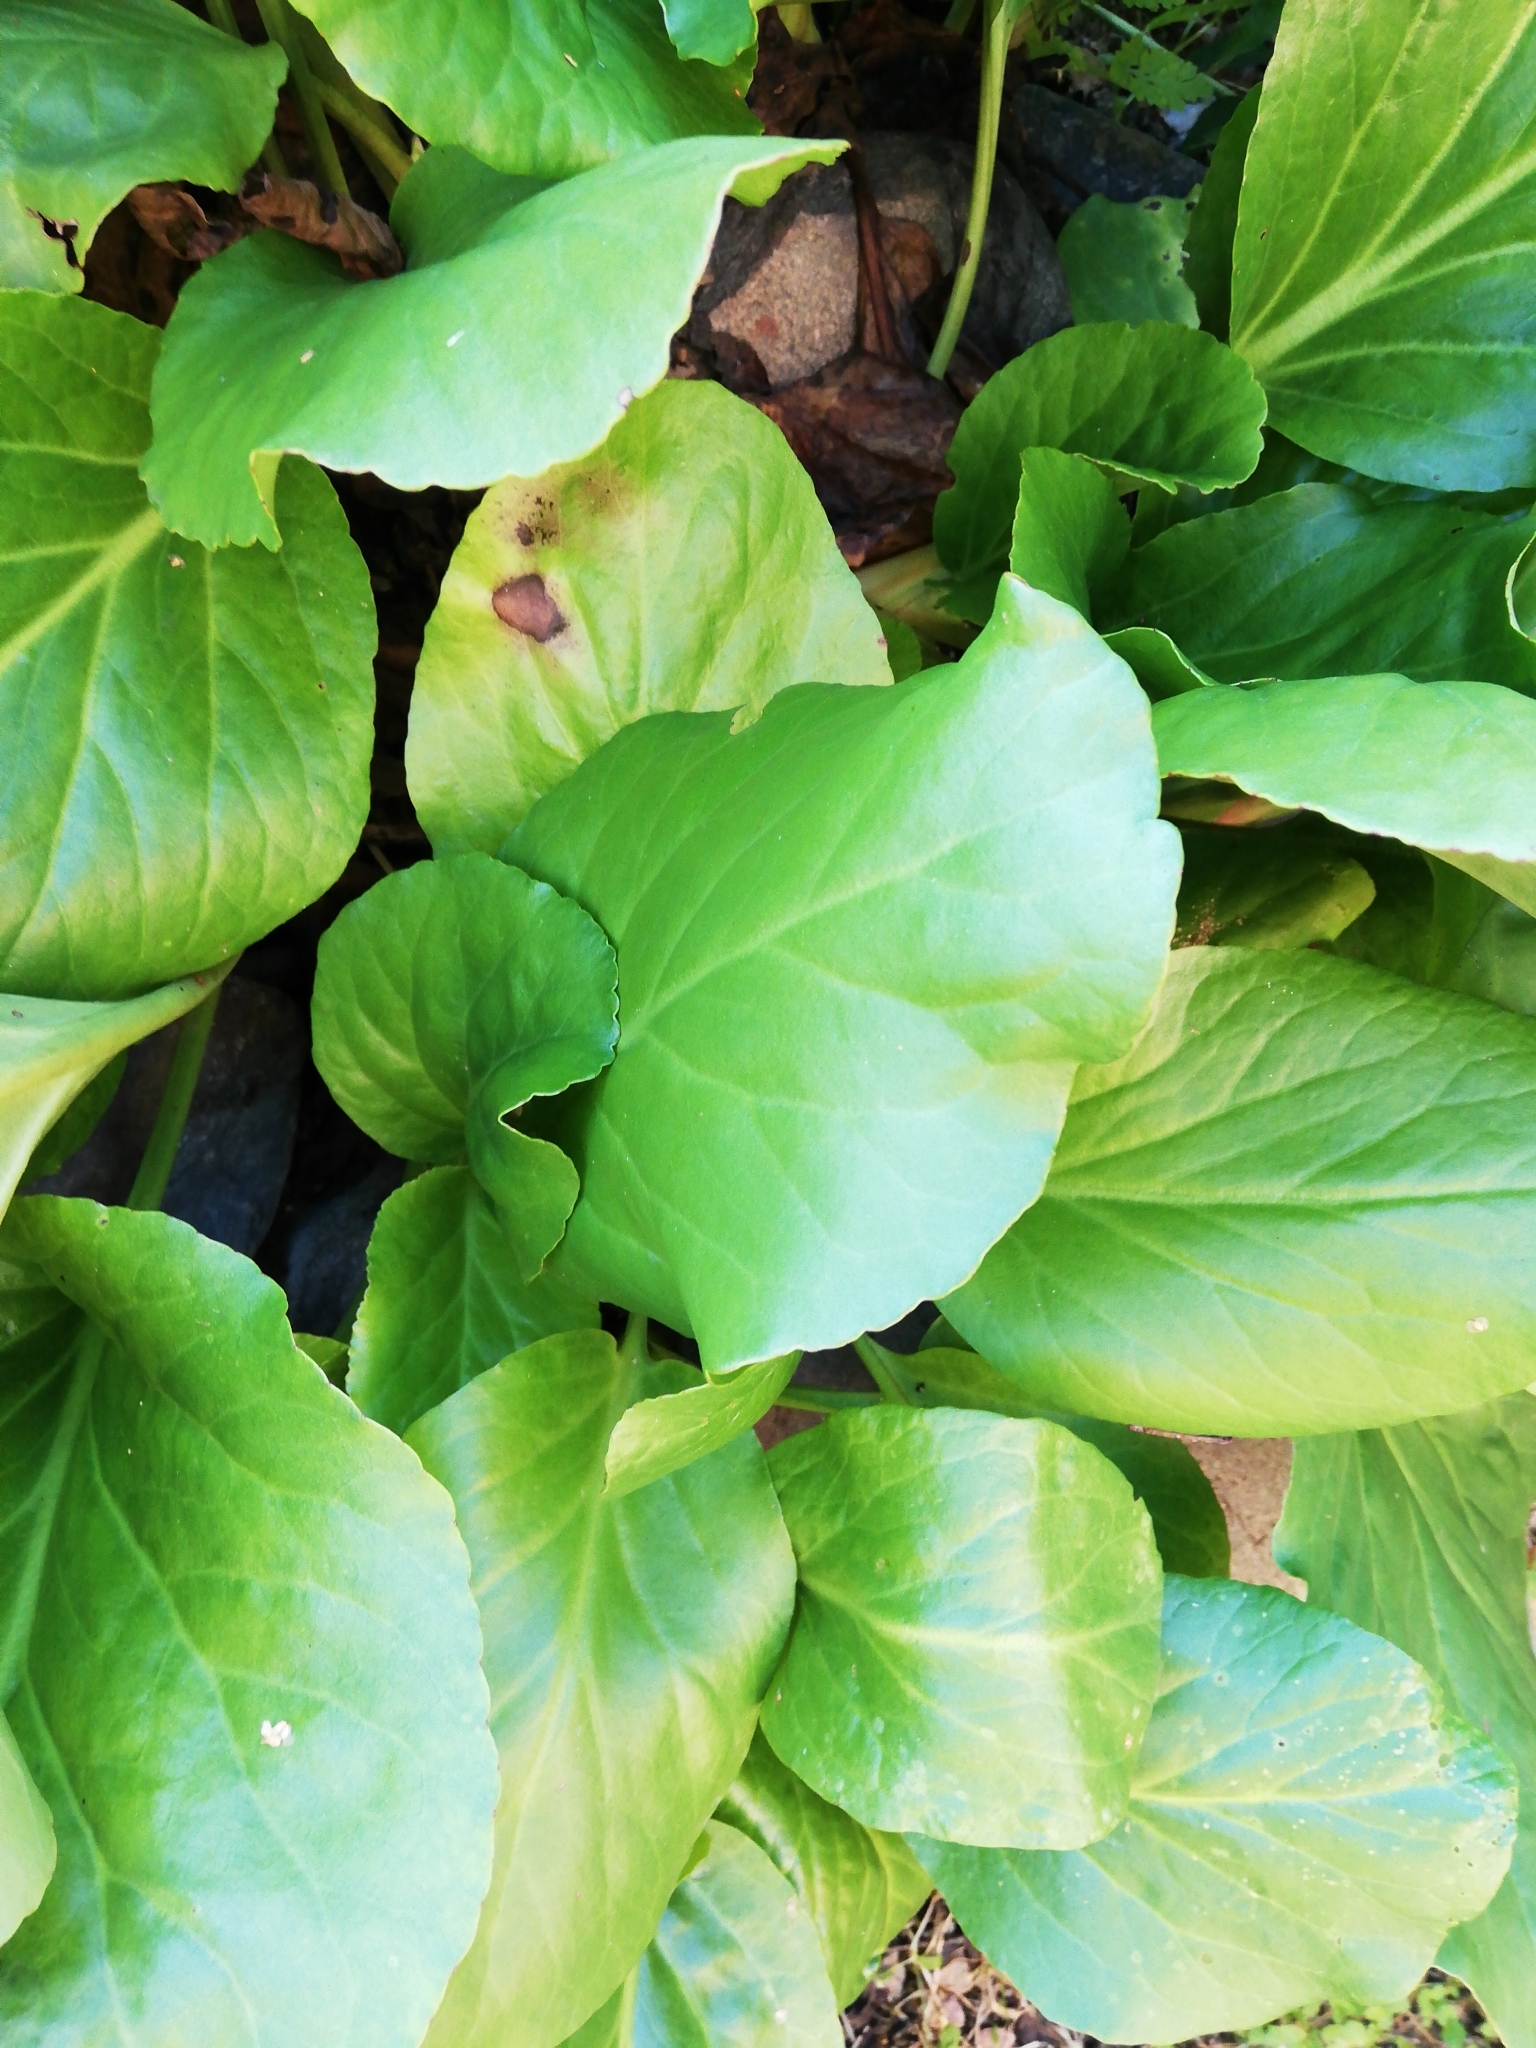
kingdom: Plantae
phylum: Tracheophyta
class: Magnoliopsida
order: Saxifragales
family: Saxifragaceae
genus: Bergenia
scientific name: Bergenia crassifolia
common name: Elephant-ears
